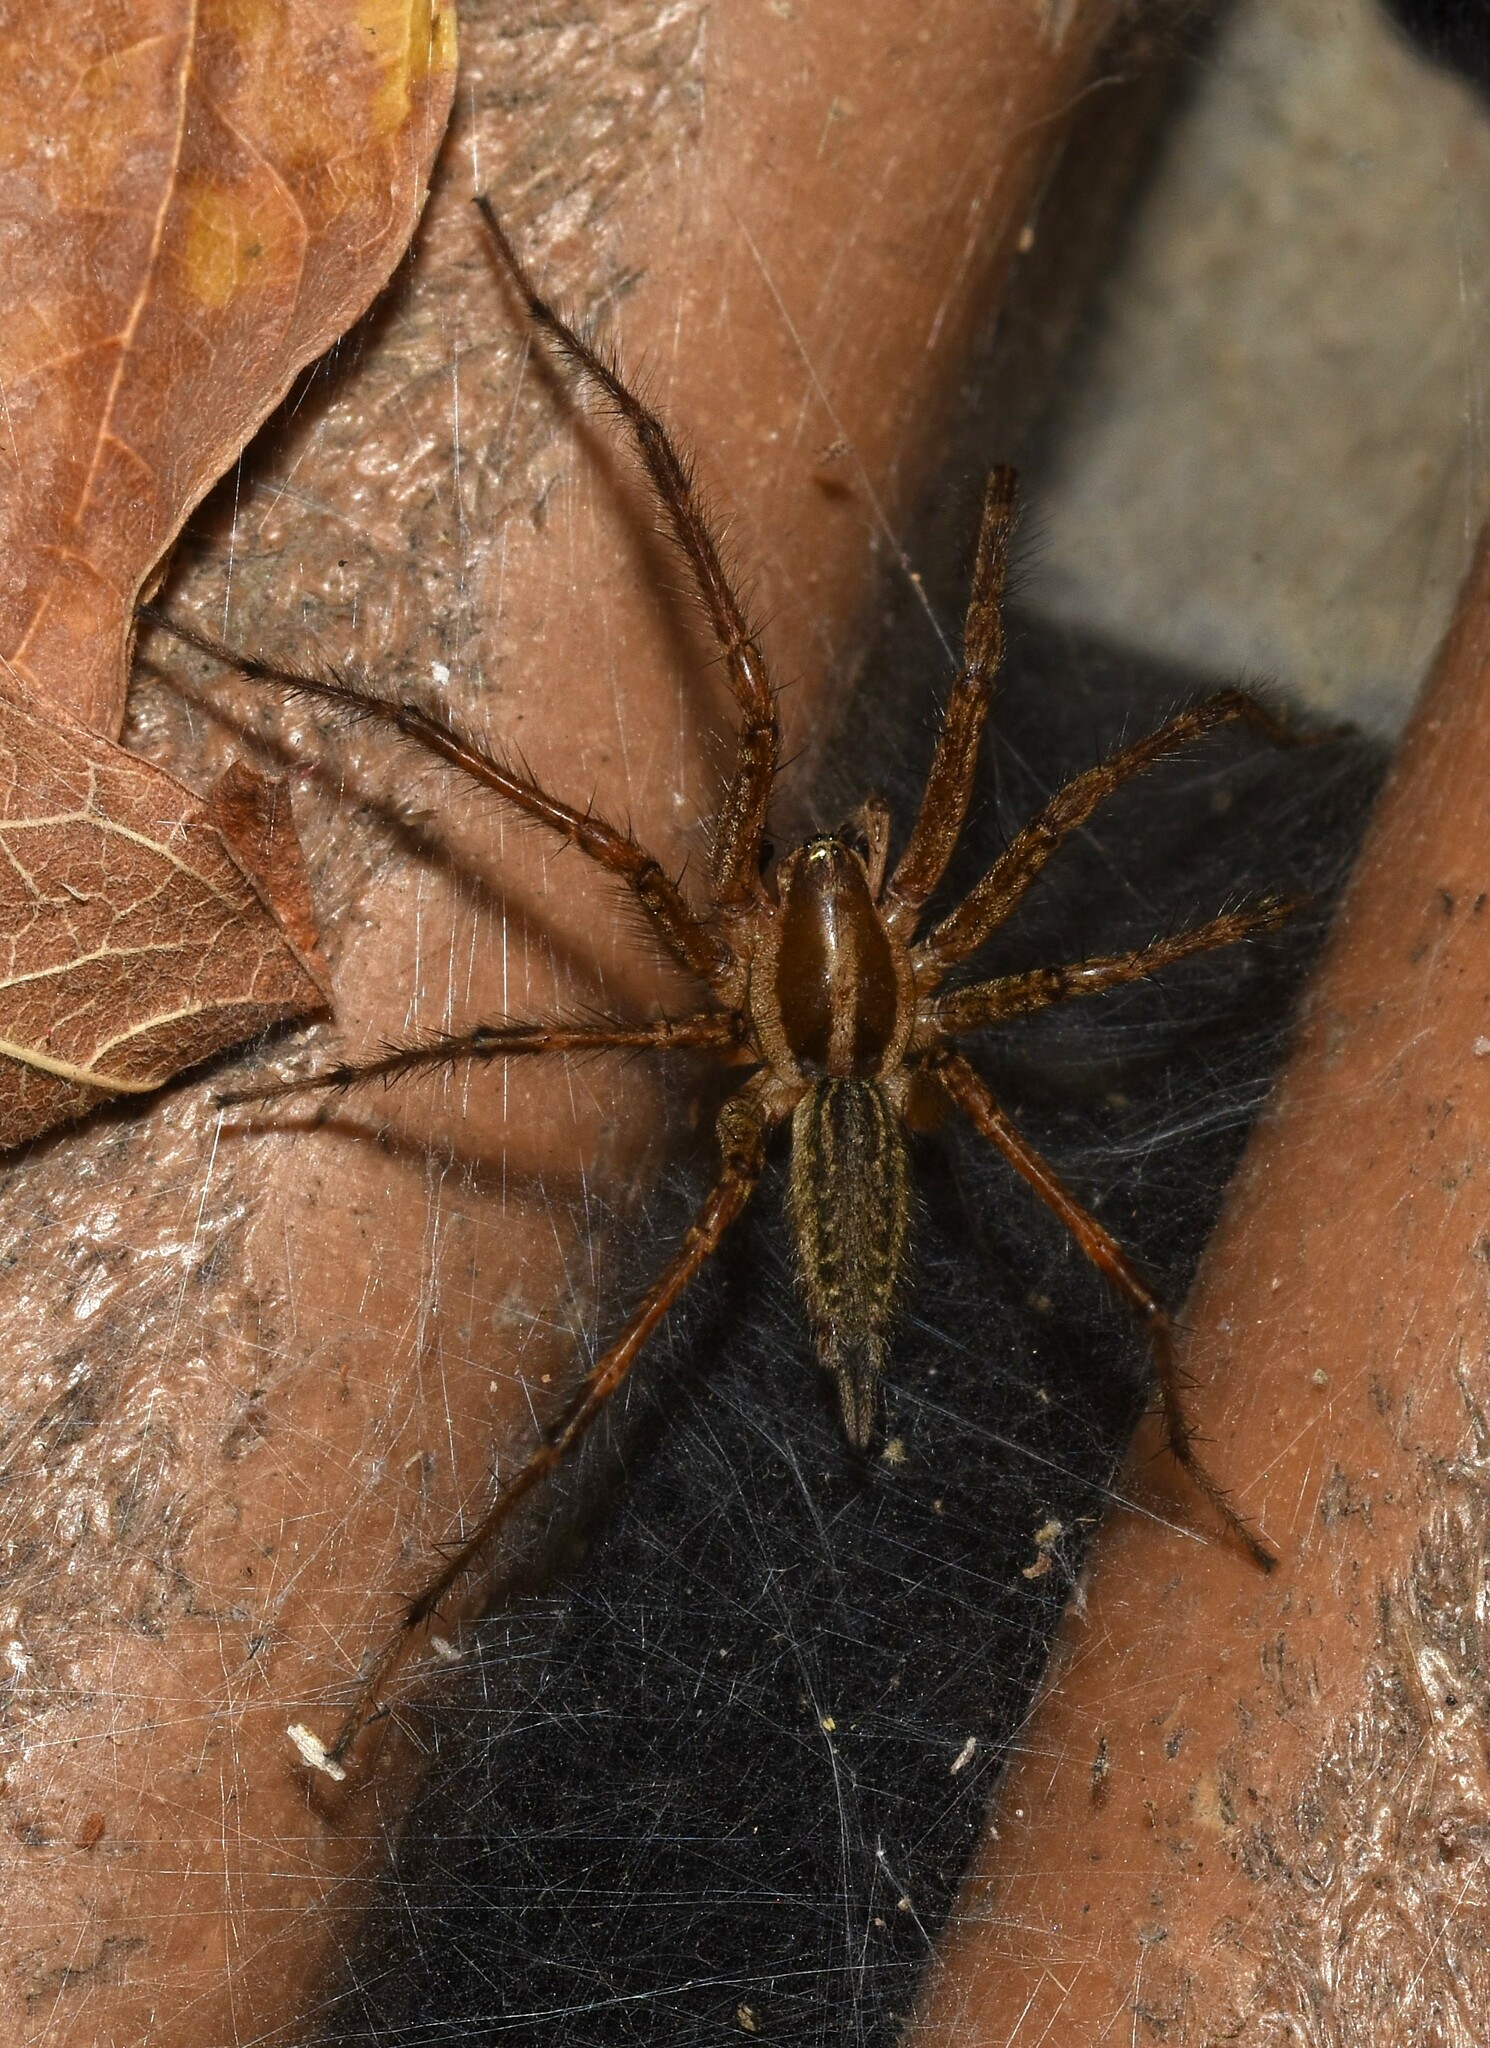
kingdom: Animalia
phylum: Arthropoda
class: Arachnida
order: Araneae
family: Agelenidae
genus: Agelenopsis
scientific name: Agelenopsis
